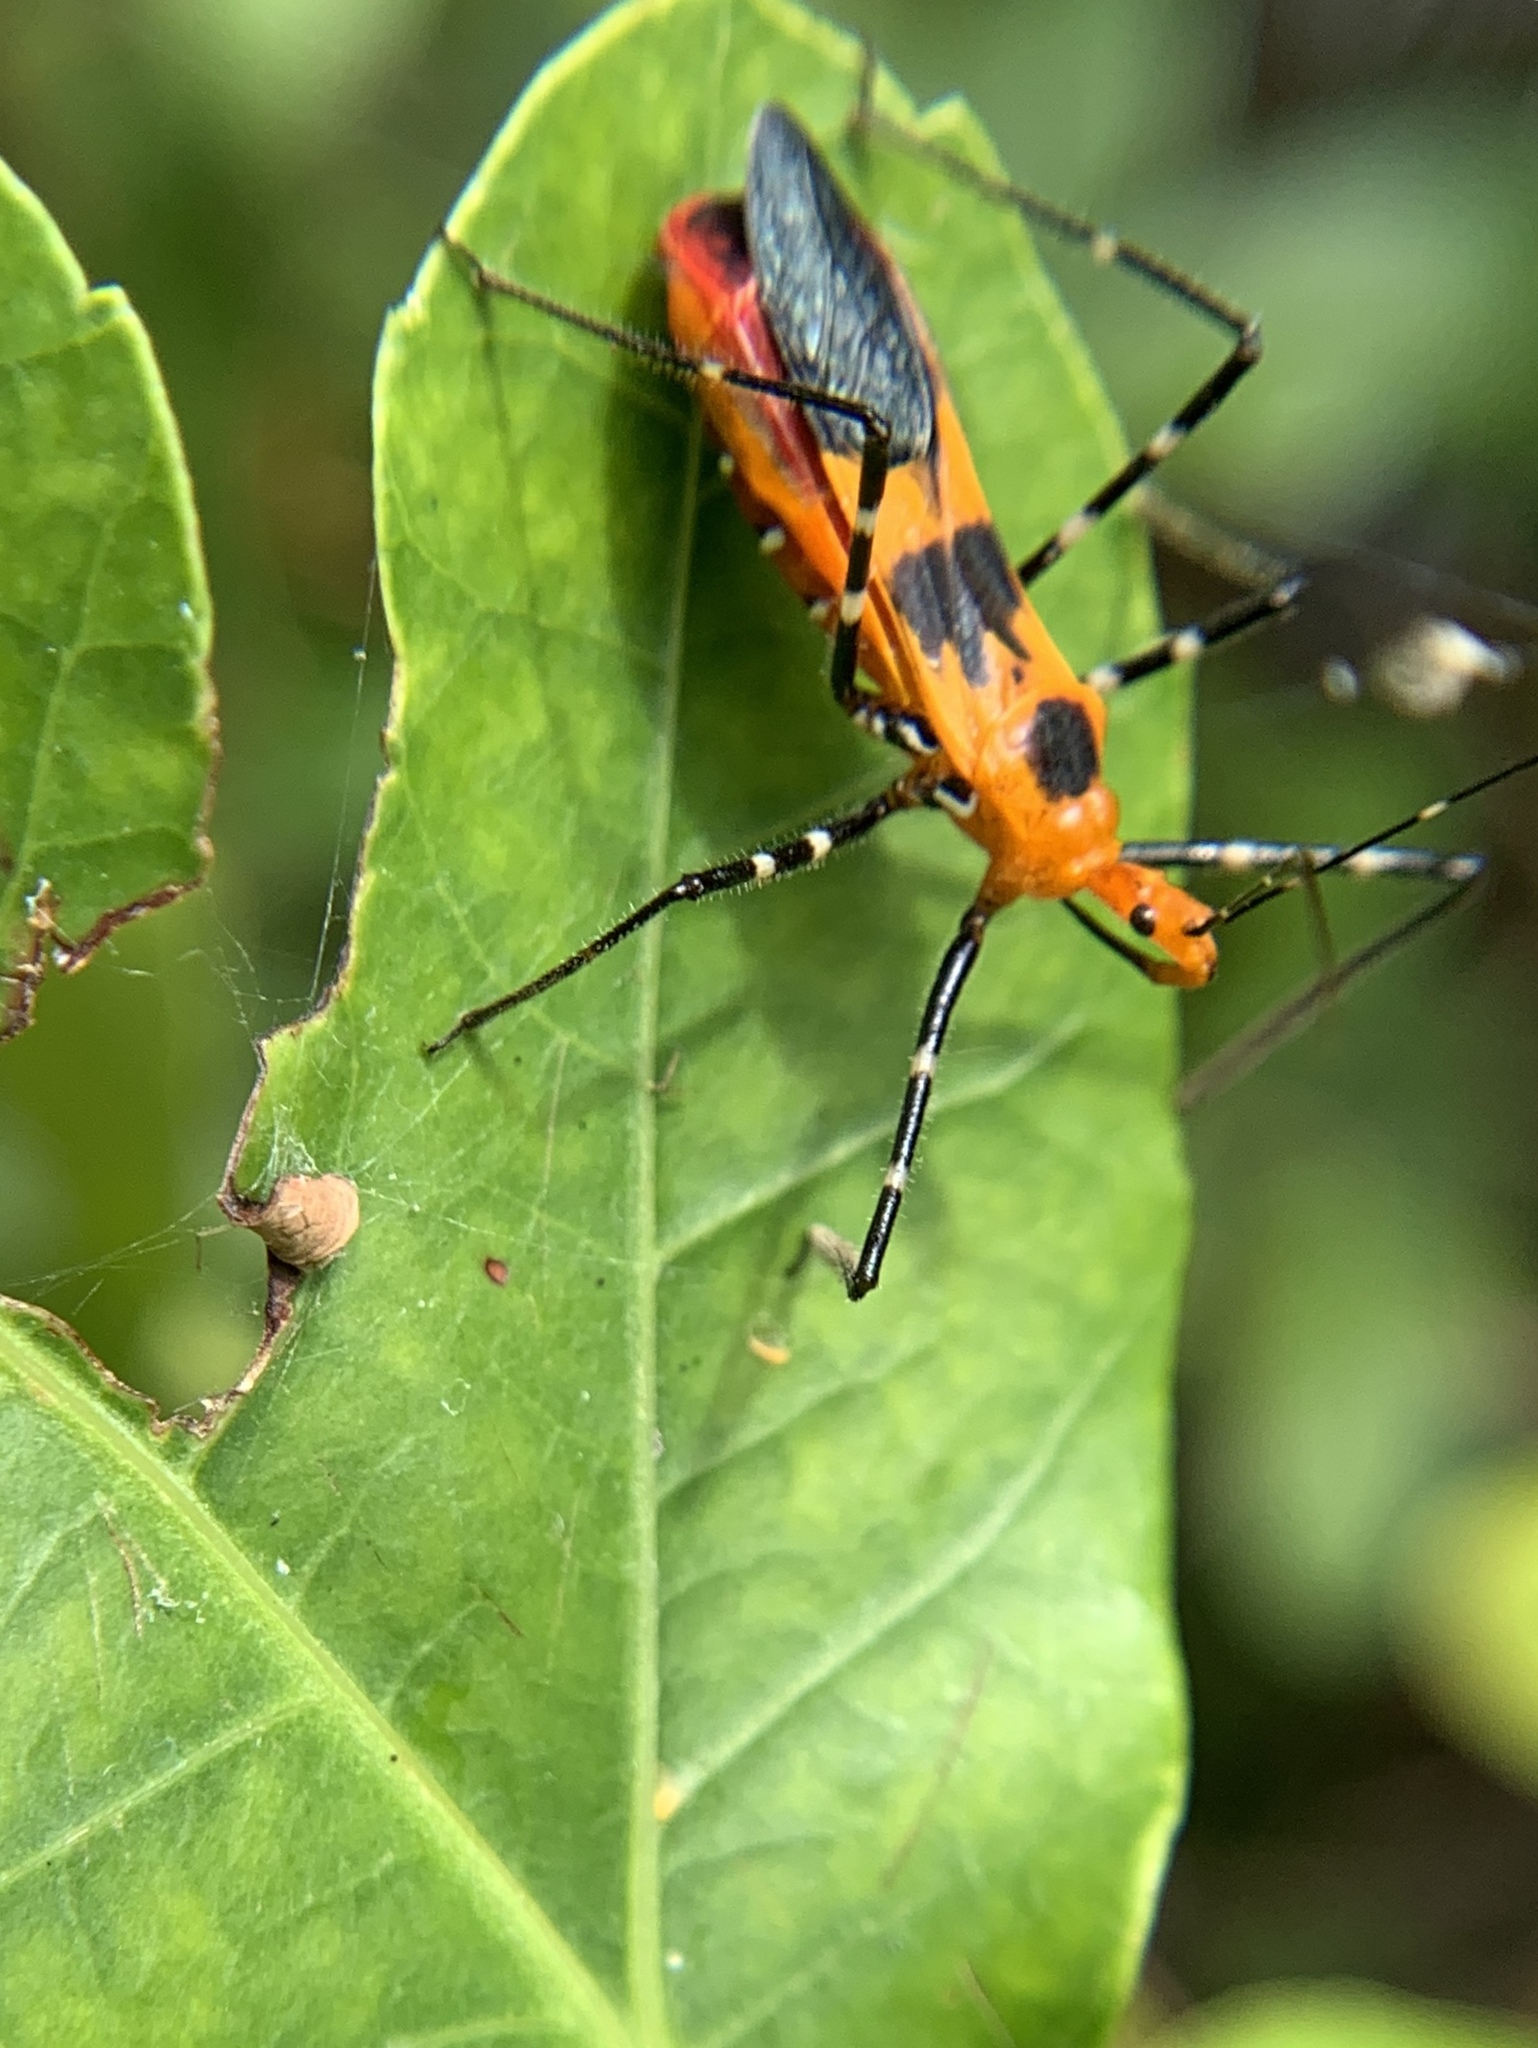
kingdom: Animalia
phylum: Arthropoda
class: Insecta
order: Hemiptera
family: Reduviidae
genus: Zelus
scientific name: Zelus longipes
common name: Milkweed assassin bug
